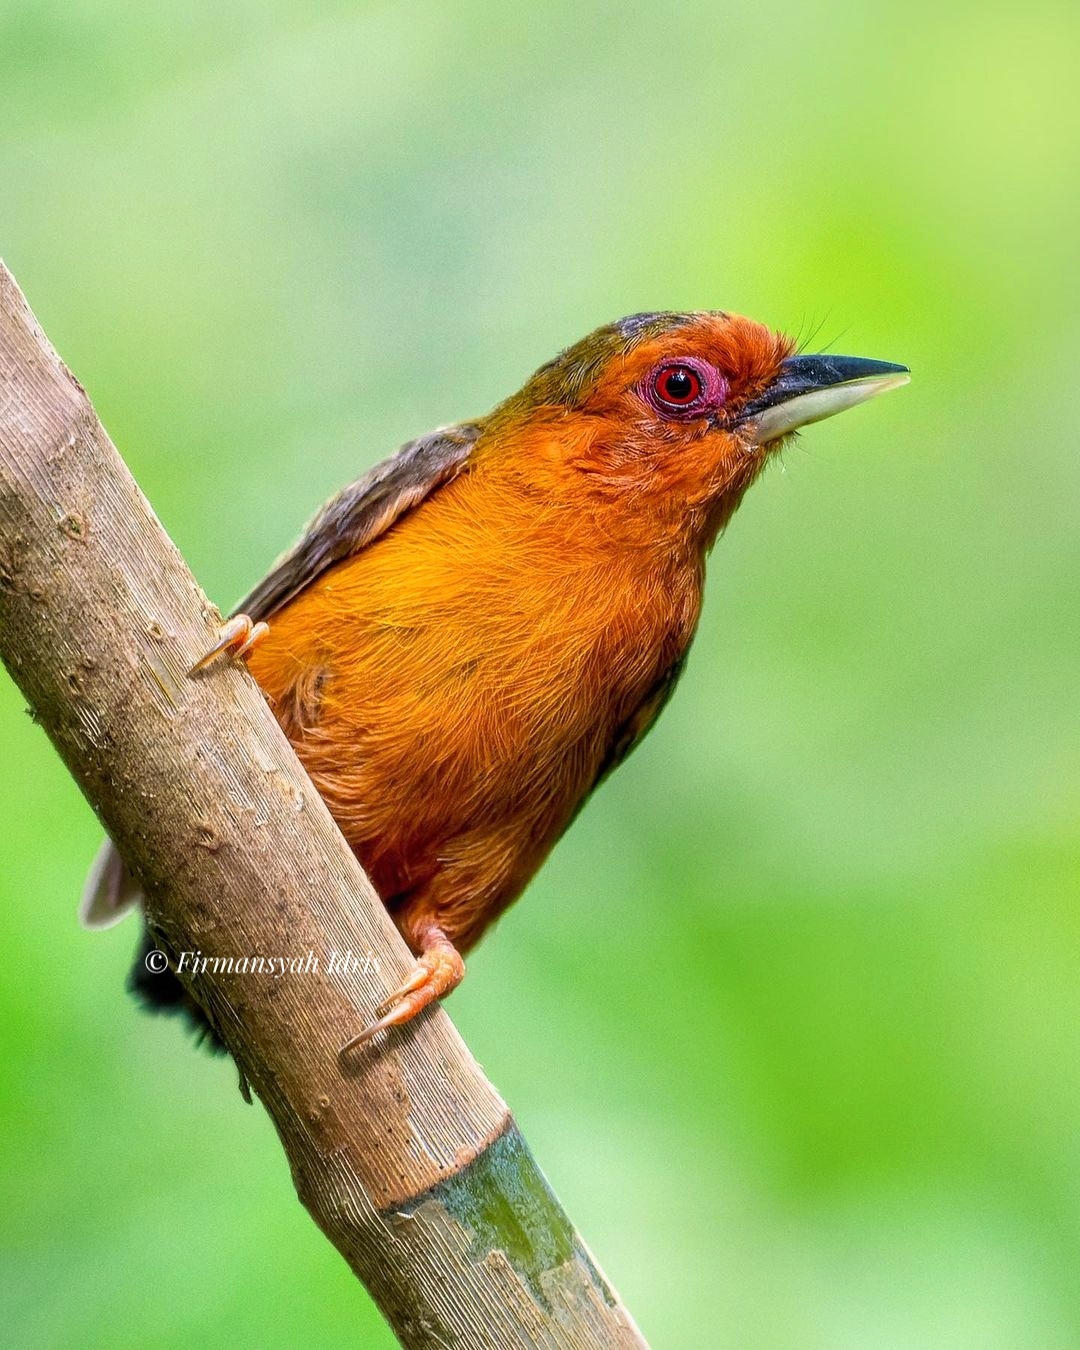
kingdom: Animalia
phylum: Chordata
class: Aves
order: Piciformes
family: Picidae
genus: Sasia
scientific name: Sasia abnormis
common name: Rufous piculet
